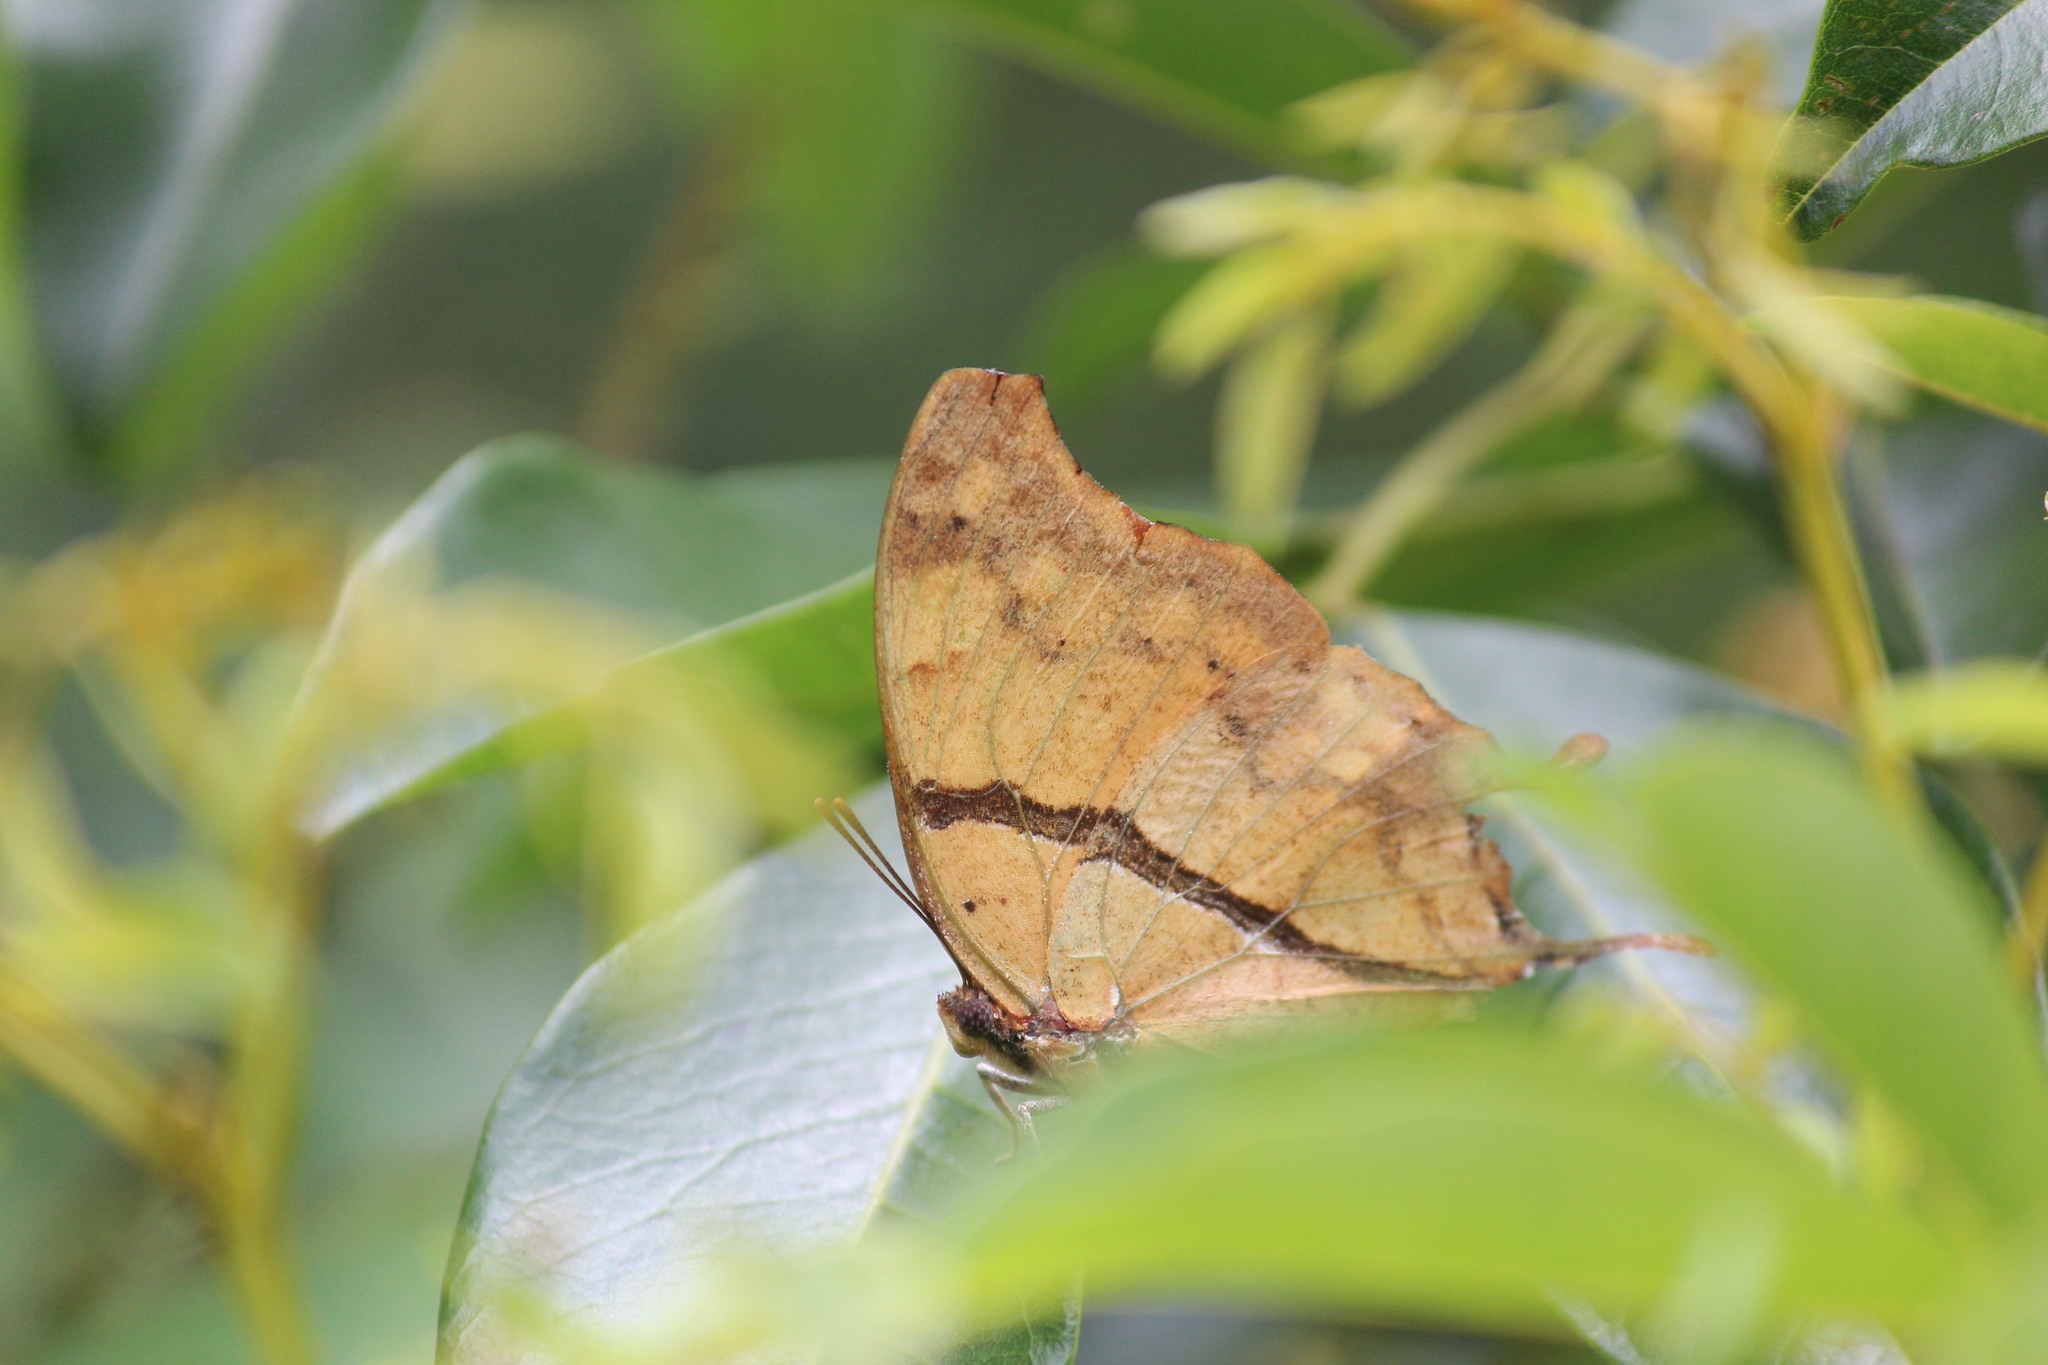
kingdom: Animalia
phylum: Arthropoda
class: Insecta
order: Lepidoptera
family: Nymphalidae
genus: Polyura
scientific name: Polyura
